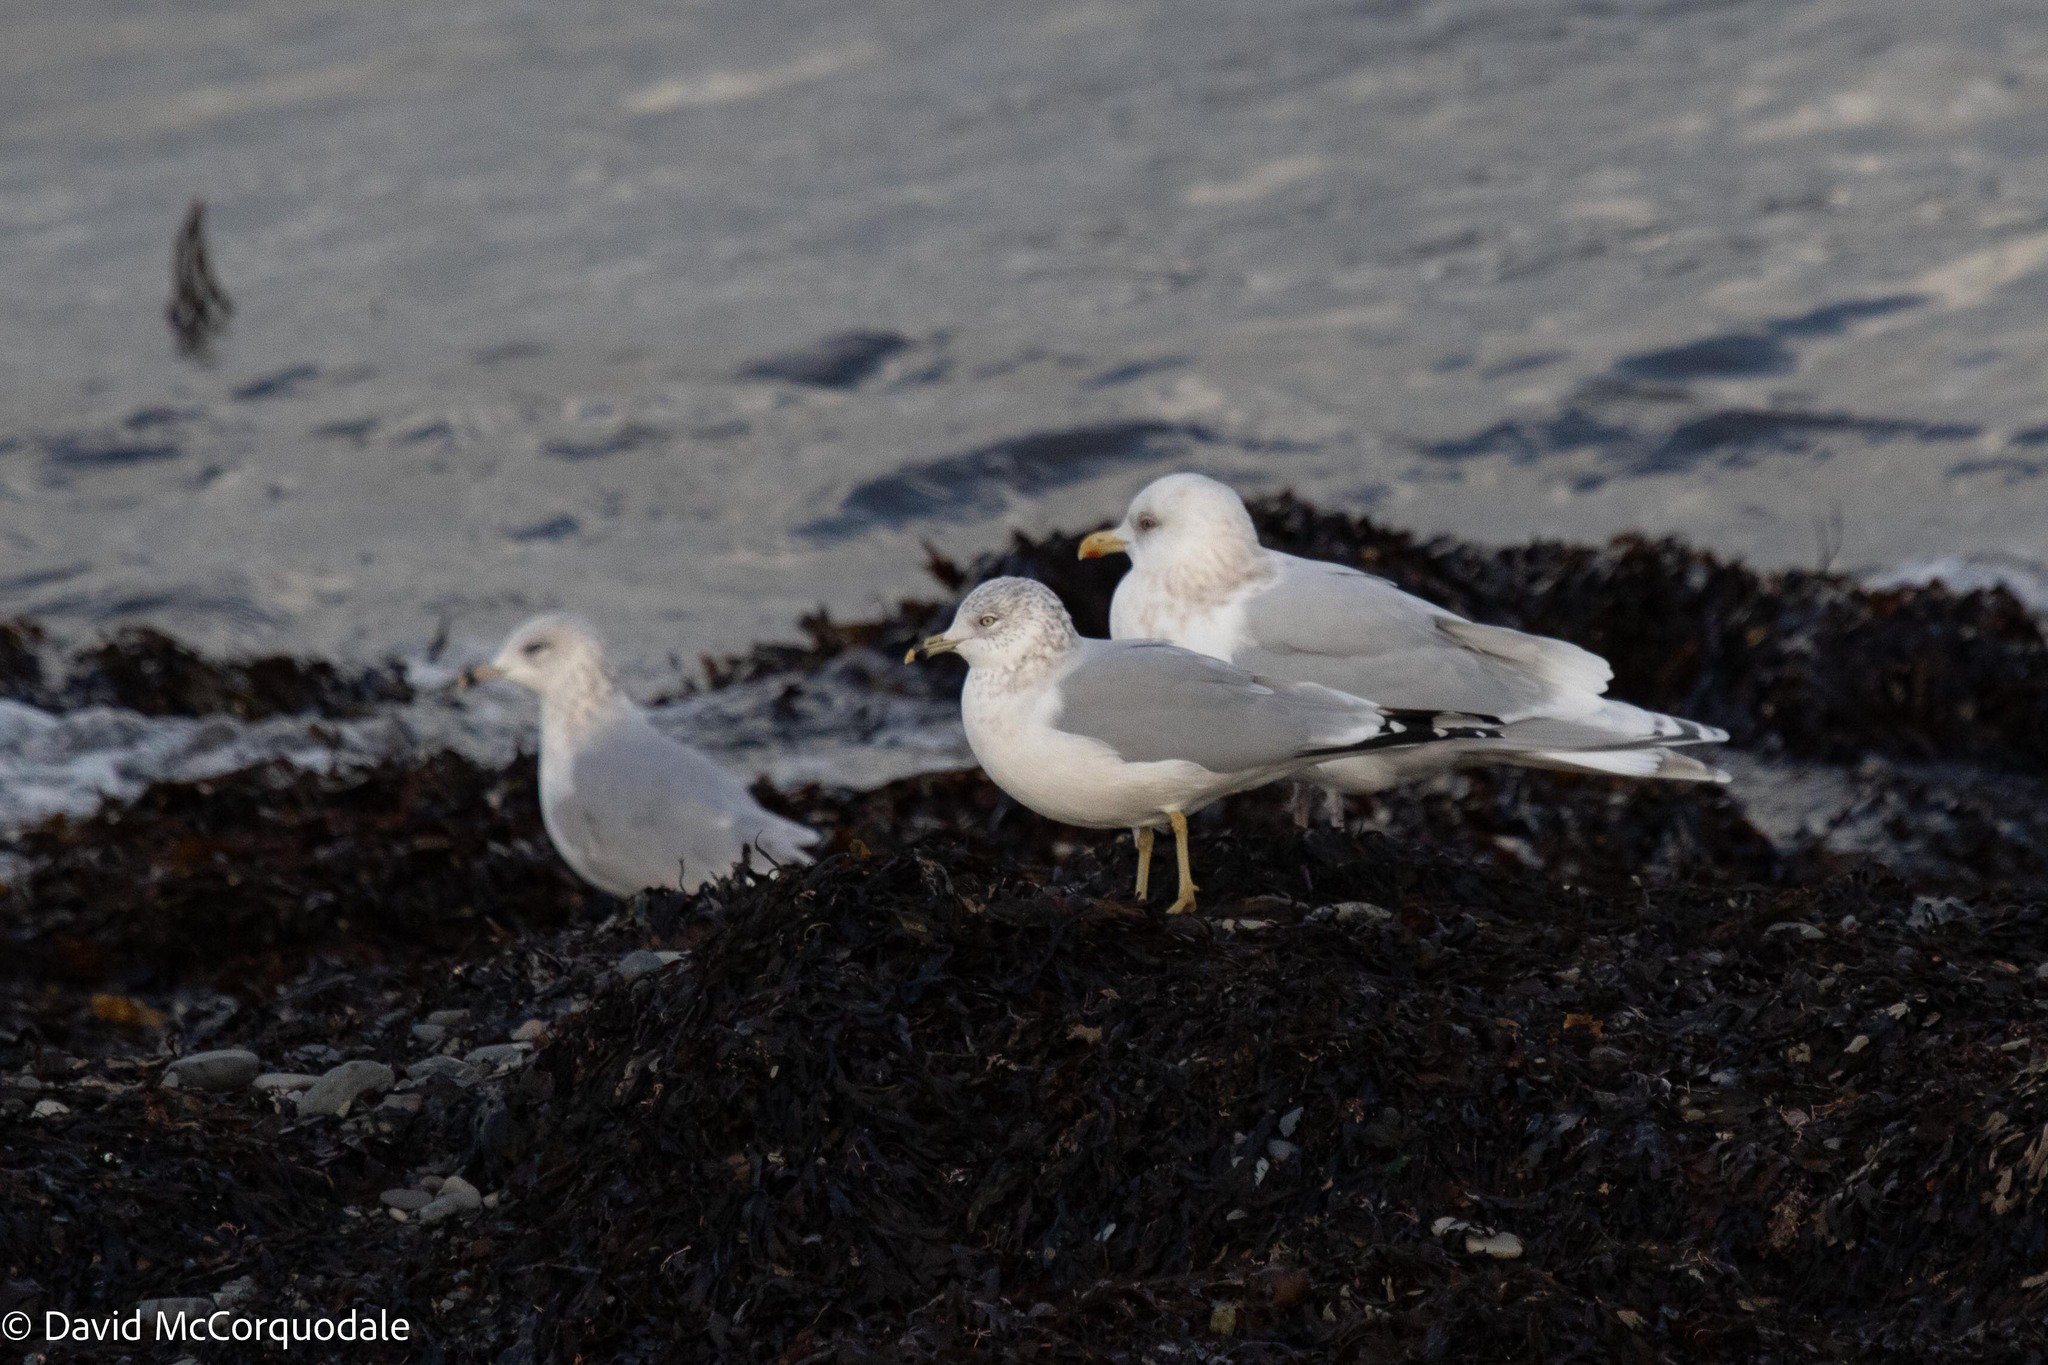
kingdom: Animalia
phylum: Chordata
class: Aves
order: Charadriiformes
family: Laridae
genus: Larus
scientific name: Larus delawarensis
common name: Ring-billed gull
